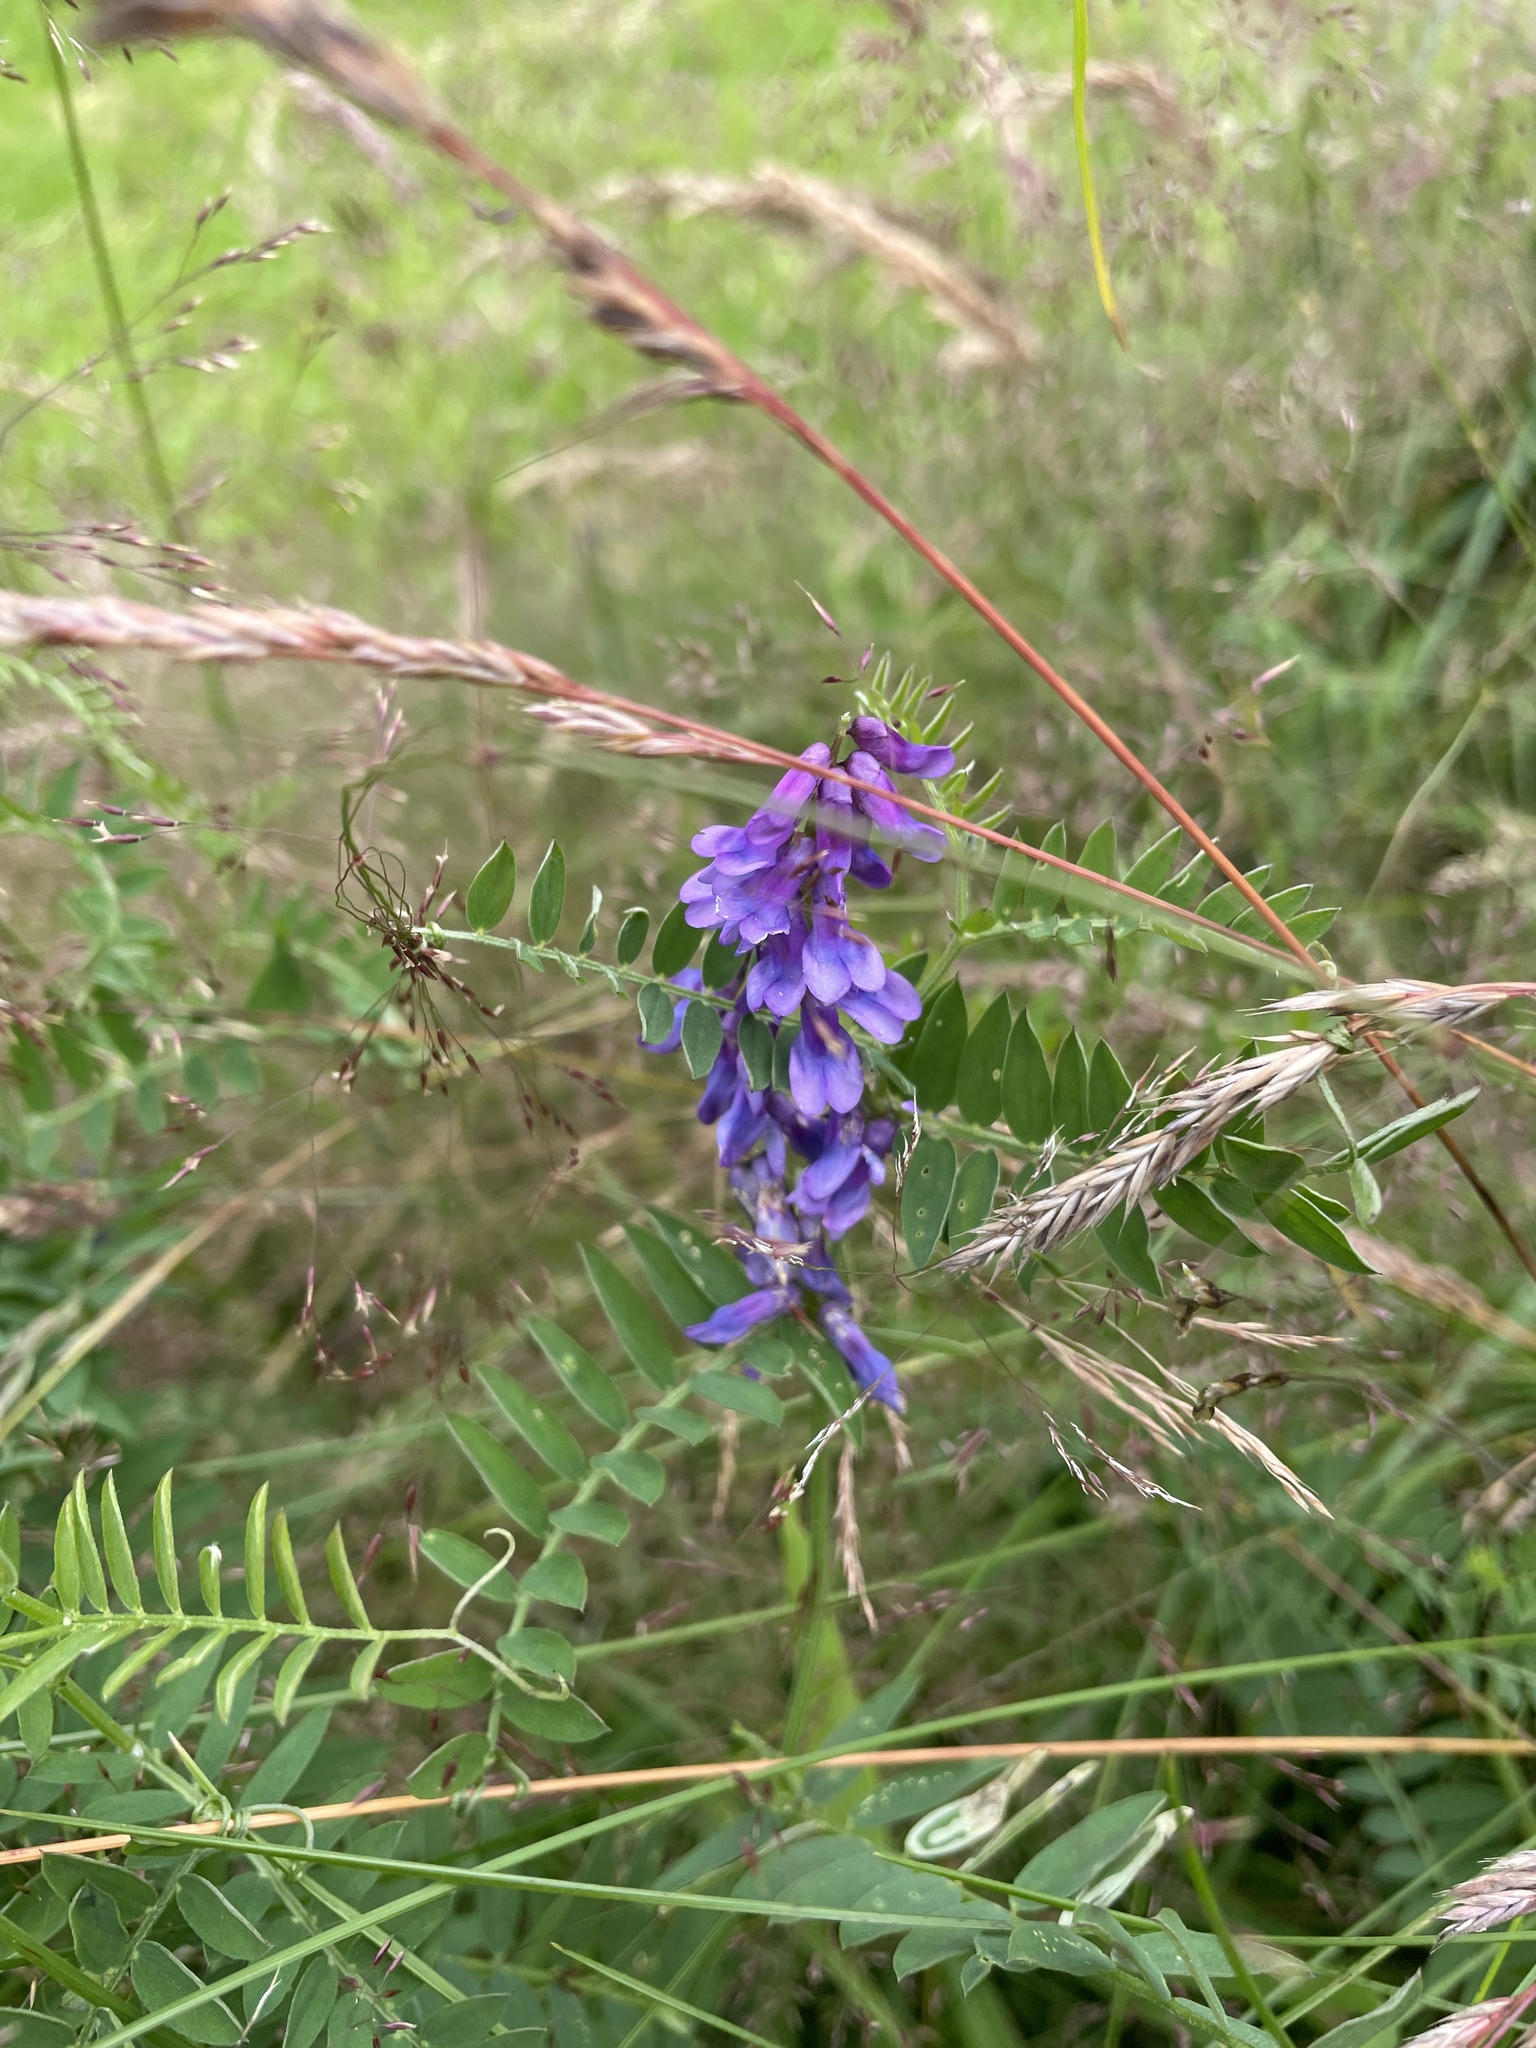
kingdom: Plantae
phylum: Tracheophyta
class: Magnoliopsida
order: Fabales
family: Fabaceae
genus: Vicia
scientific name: Vicia cracca
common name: Bird vetch
